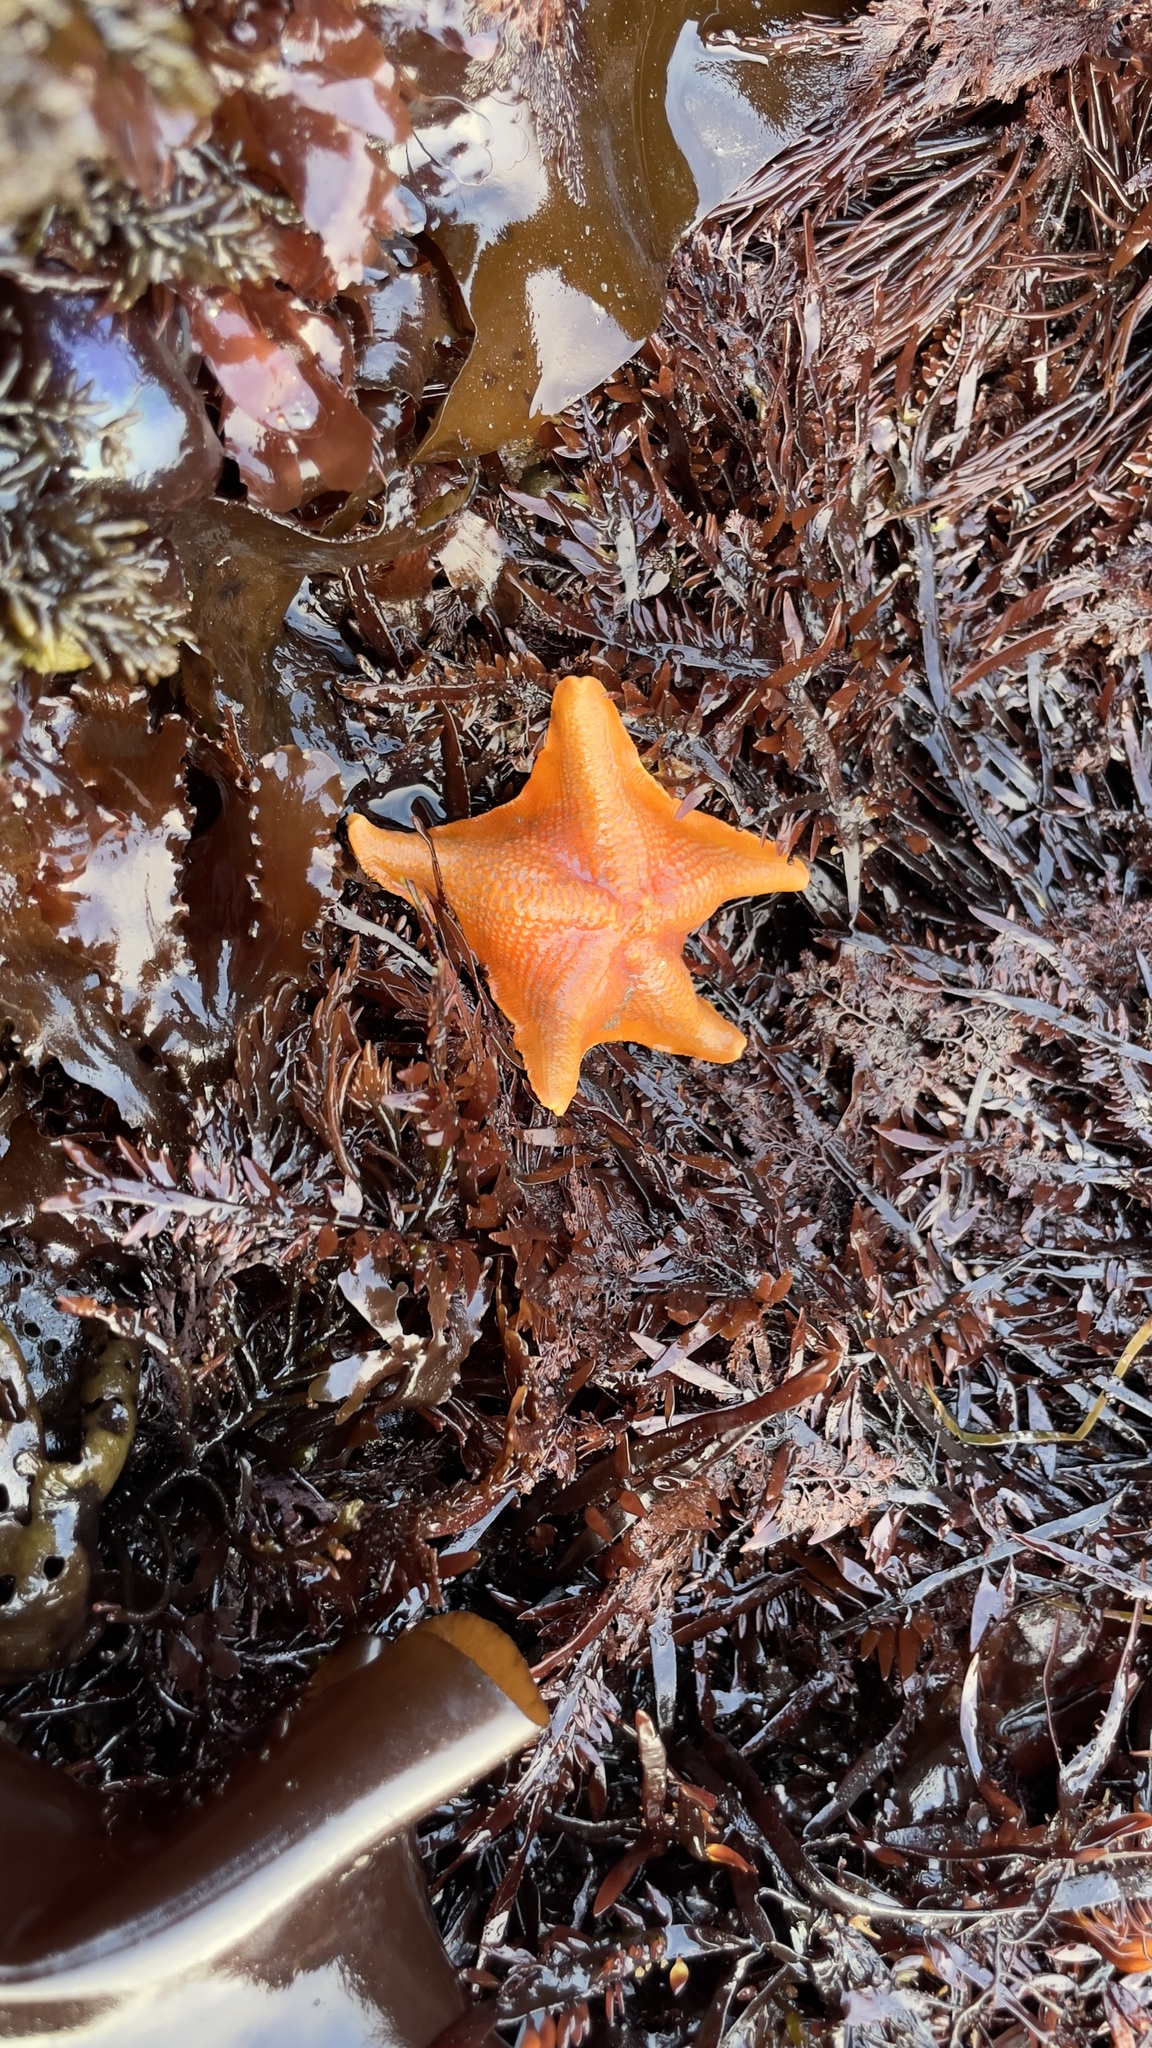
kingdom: Animalia
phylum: Echinodermata
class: Asteroidea
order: Valvatida
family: Asterinidae
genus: Patiria
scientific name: Patiria miniata
